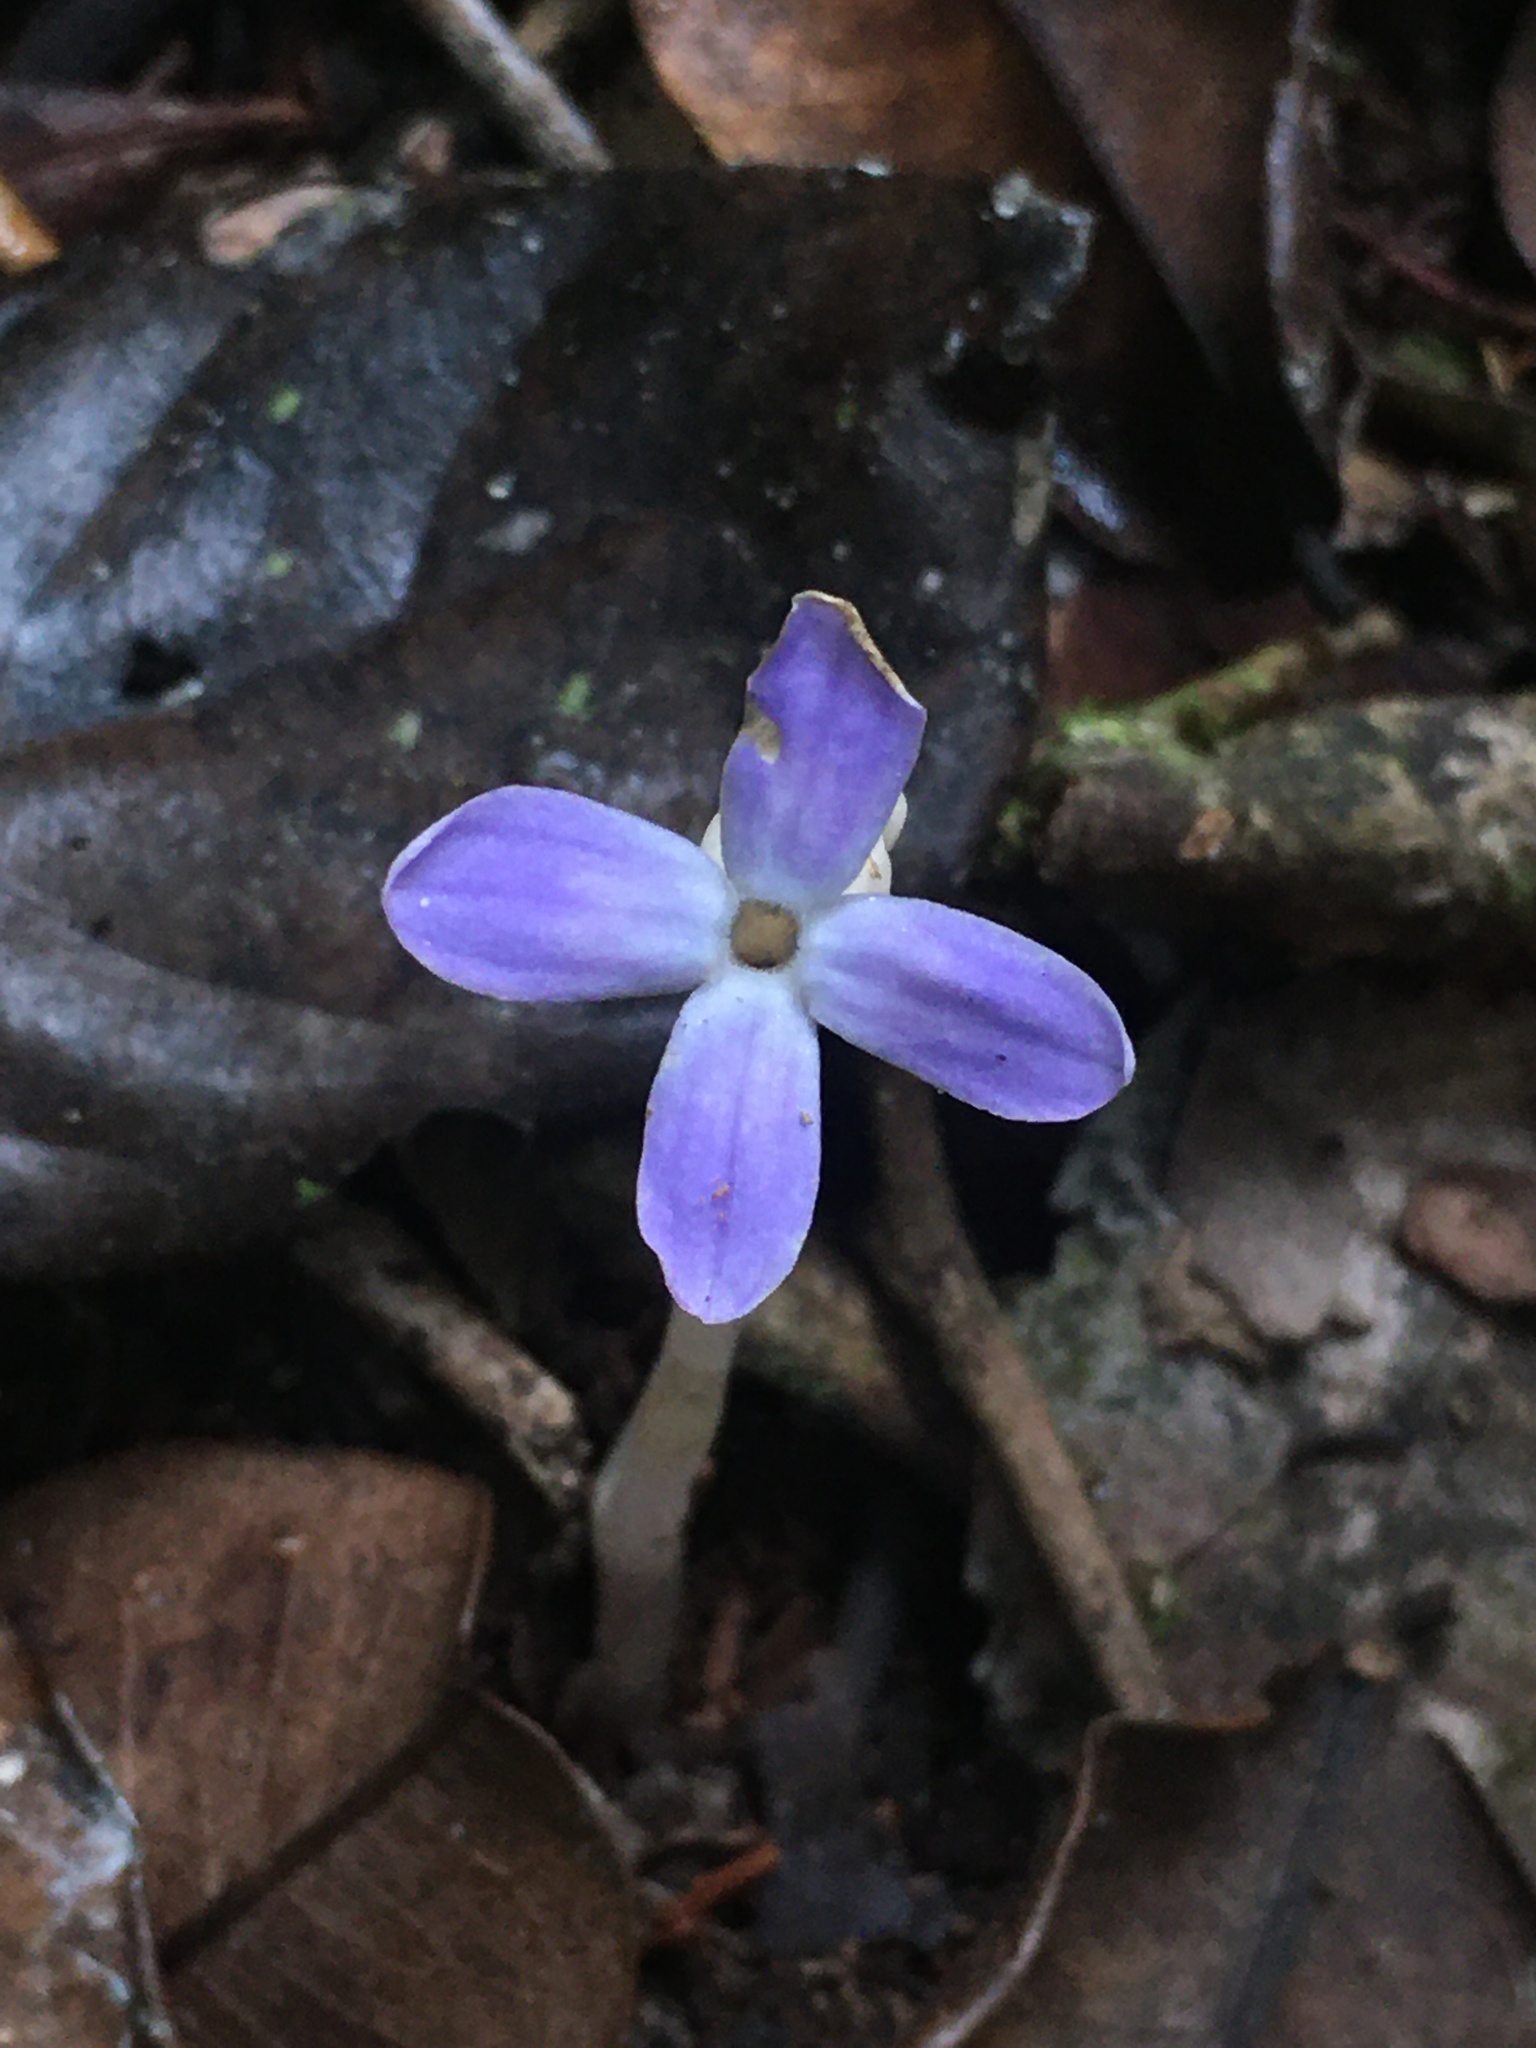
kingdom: Plantae
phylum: Tracheophyta
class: Magnoliopsida
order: Gentianales
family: Gentianaceae
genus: Voyria
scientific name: Voyria obconica
